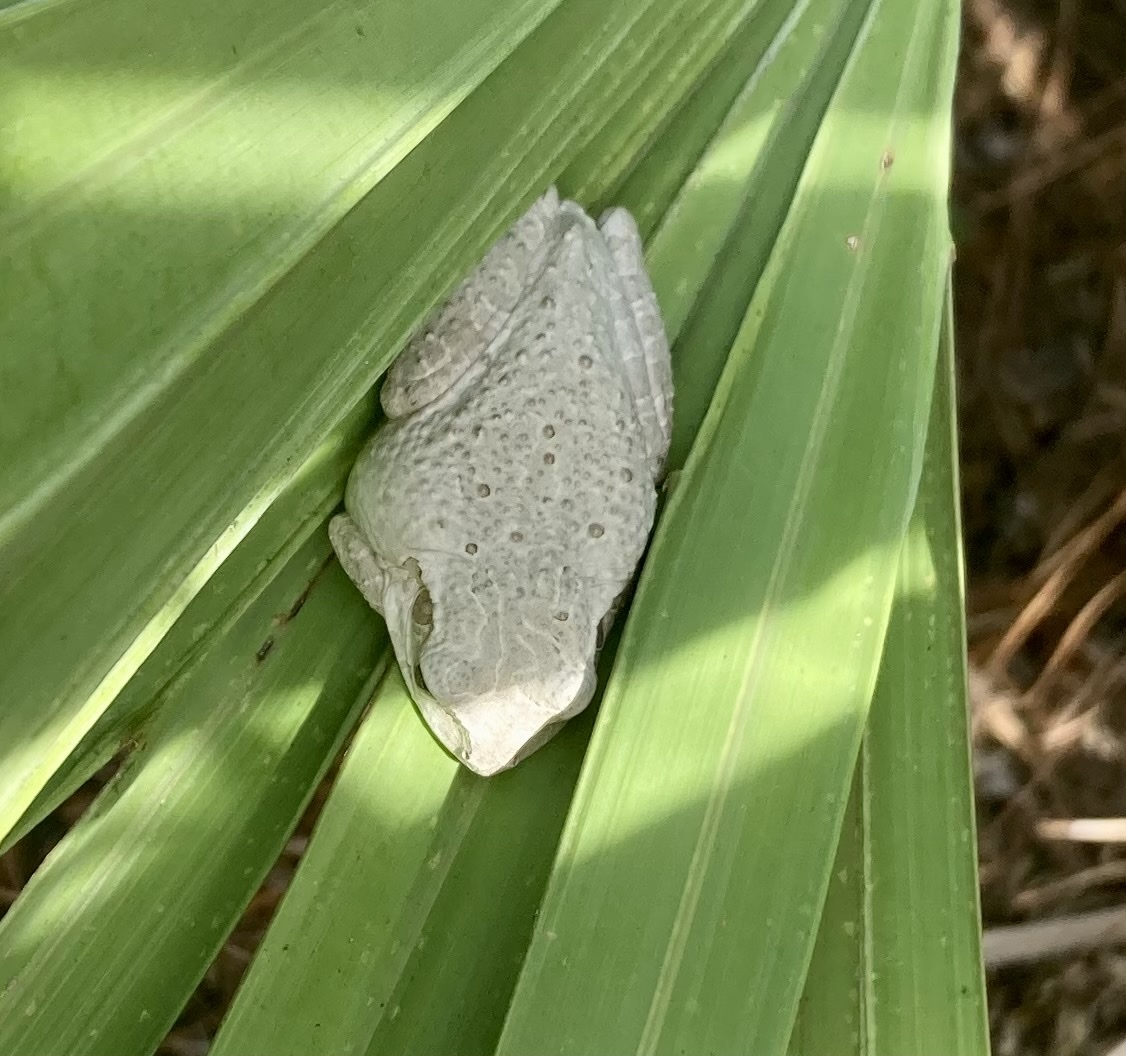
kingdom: Animalia
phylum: Chordata
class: Amphibia
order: Anura
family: Hylidae
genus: Osteopilus
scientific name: Osteopilus septentrionalis
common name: Cuban treefrog
